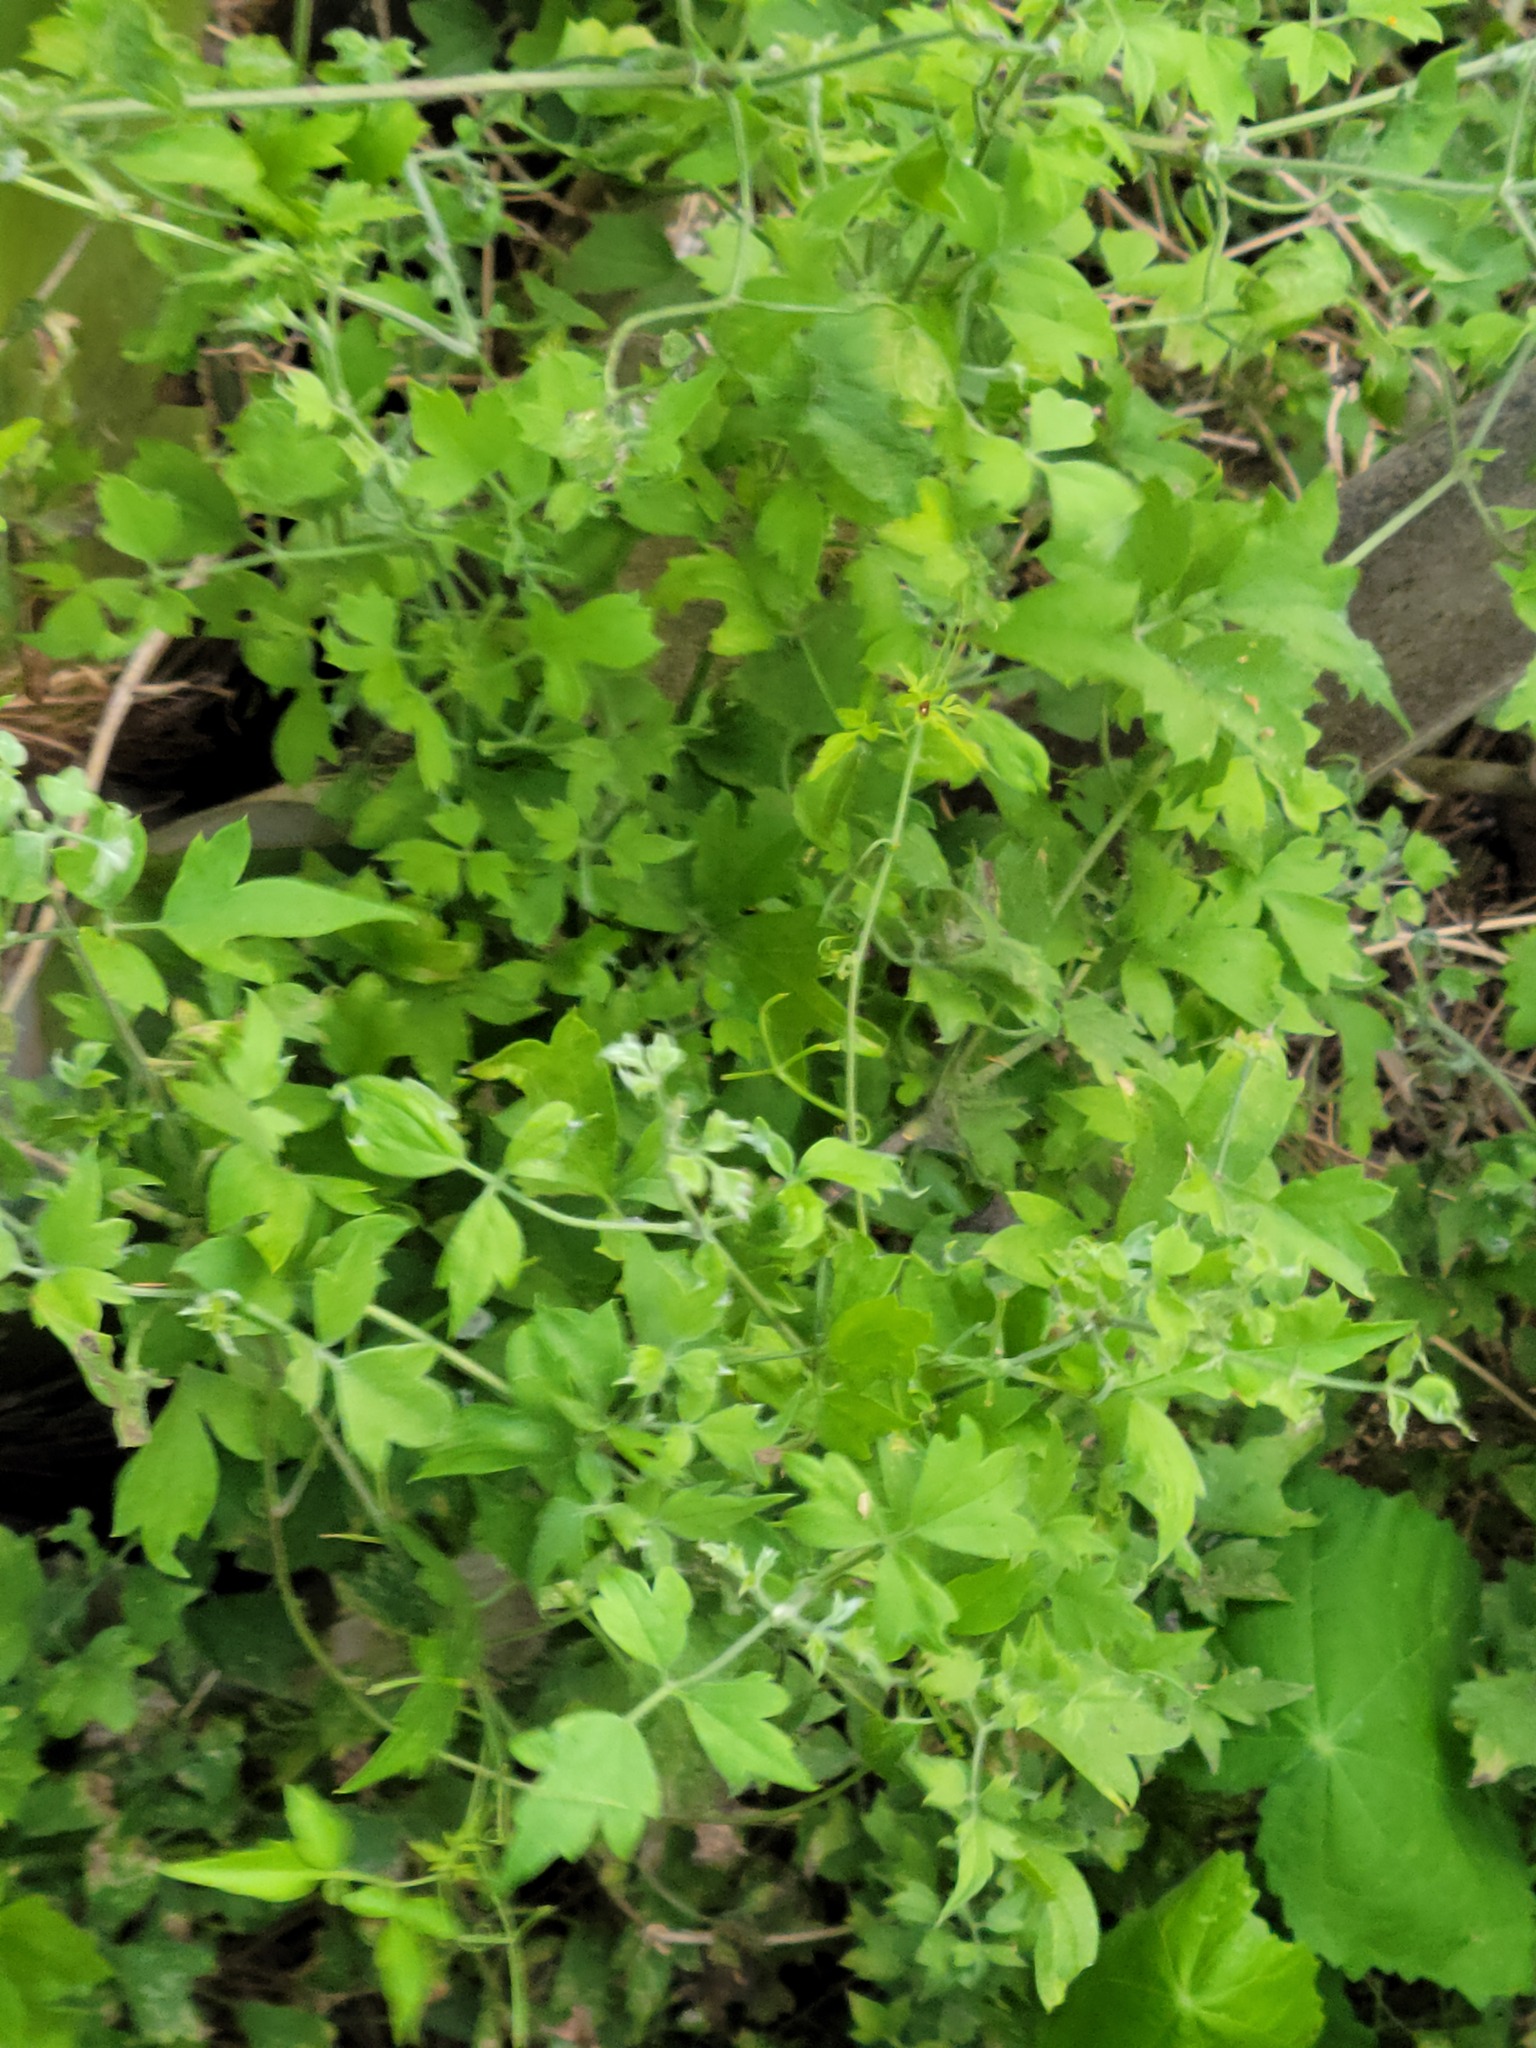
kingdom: Plantae
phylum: Tracheophyta
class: Magnoliopsida
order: Ranunculales
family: Ranunculaceae
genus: Clematis
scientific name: Clematis drummondii
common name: Texas virgin's bower
